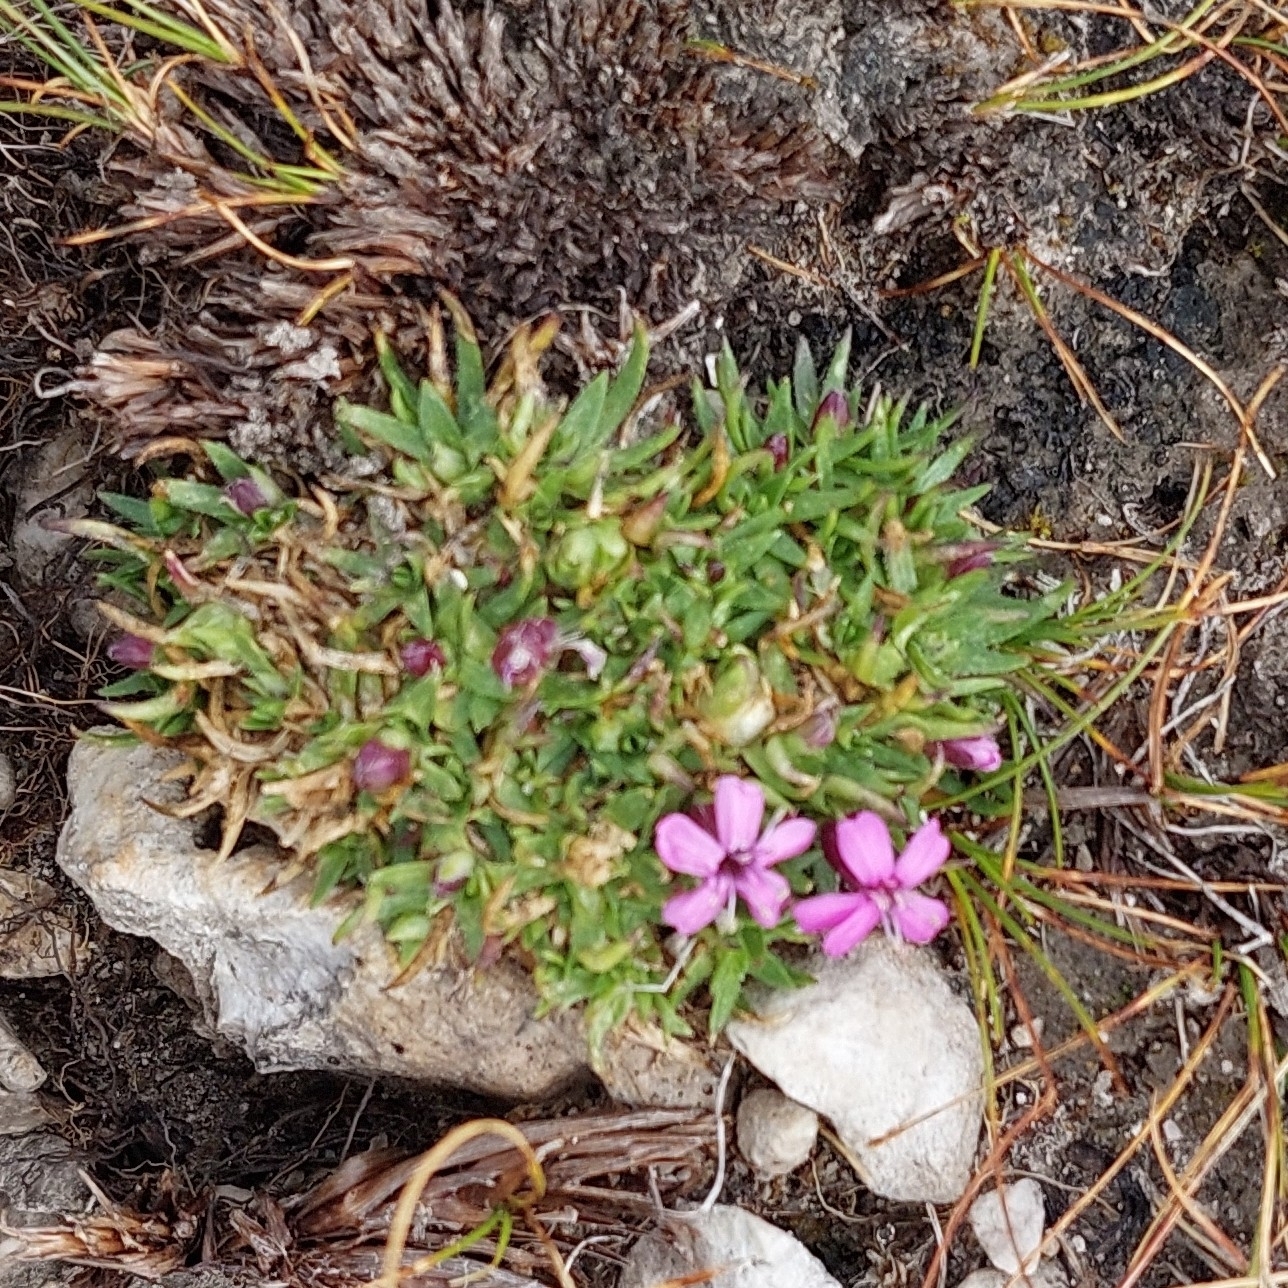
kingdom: Plantae
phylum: Tracheophyta
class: Magnoliopsida
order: Caryophyllales
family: Caryophyllaceae
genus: Silene
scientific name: Silene acaulis
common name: Moss campion
